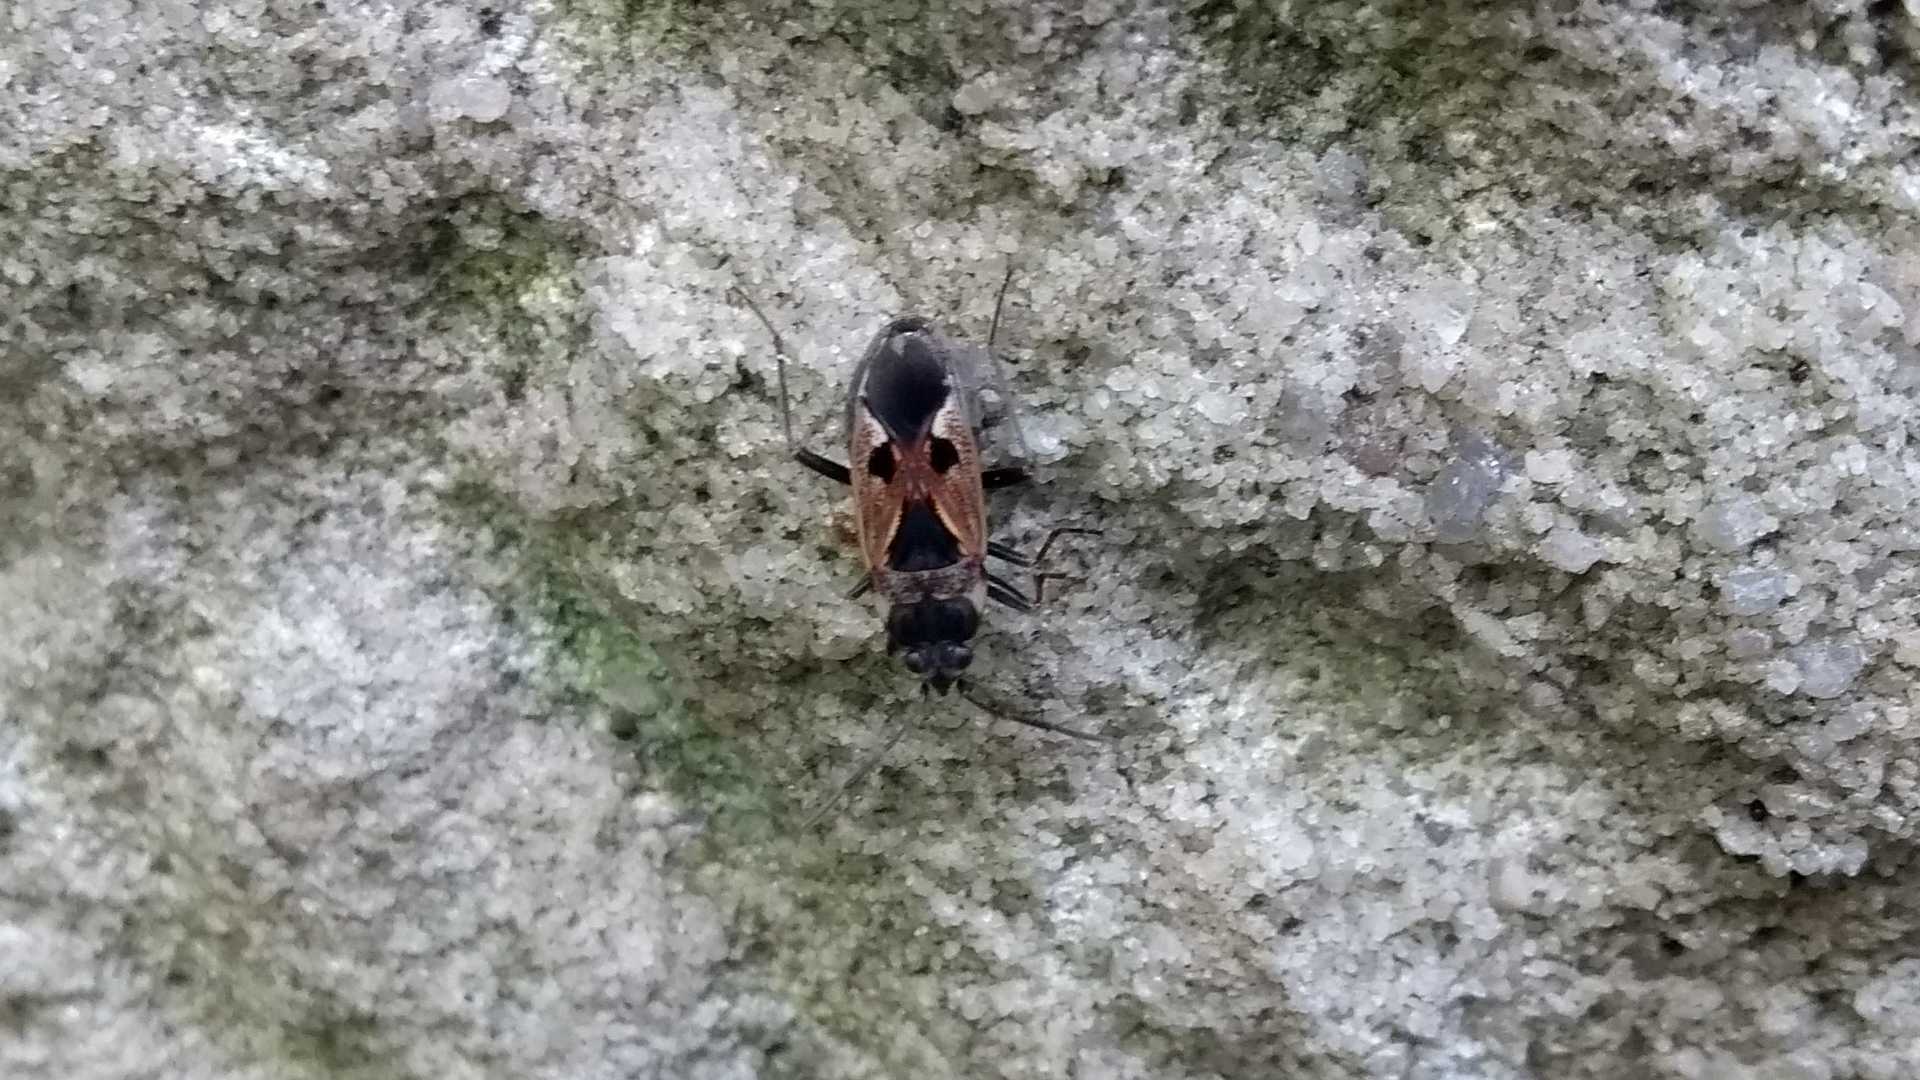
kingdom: Animalia
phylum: Arthropoda
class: Insecta
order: Hemiptera
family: Rhyparochromidae
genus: Rhyparochromus
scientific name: Rhyparochromus vulgaris
